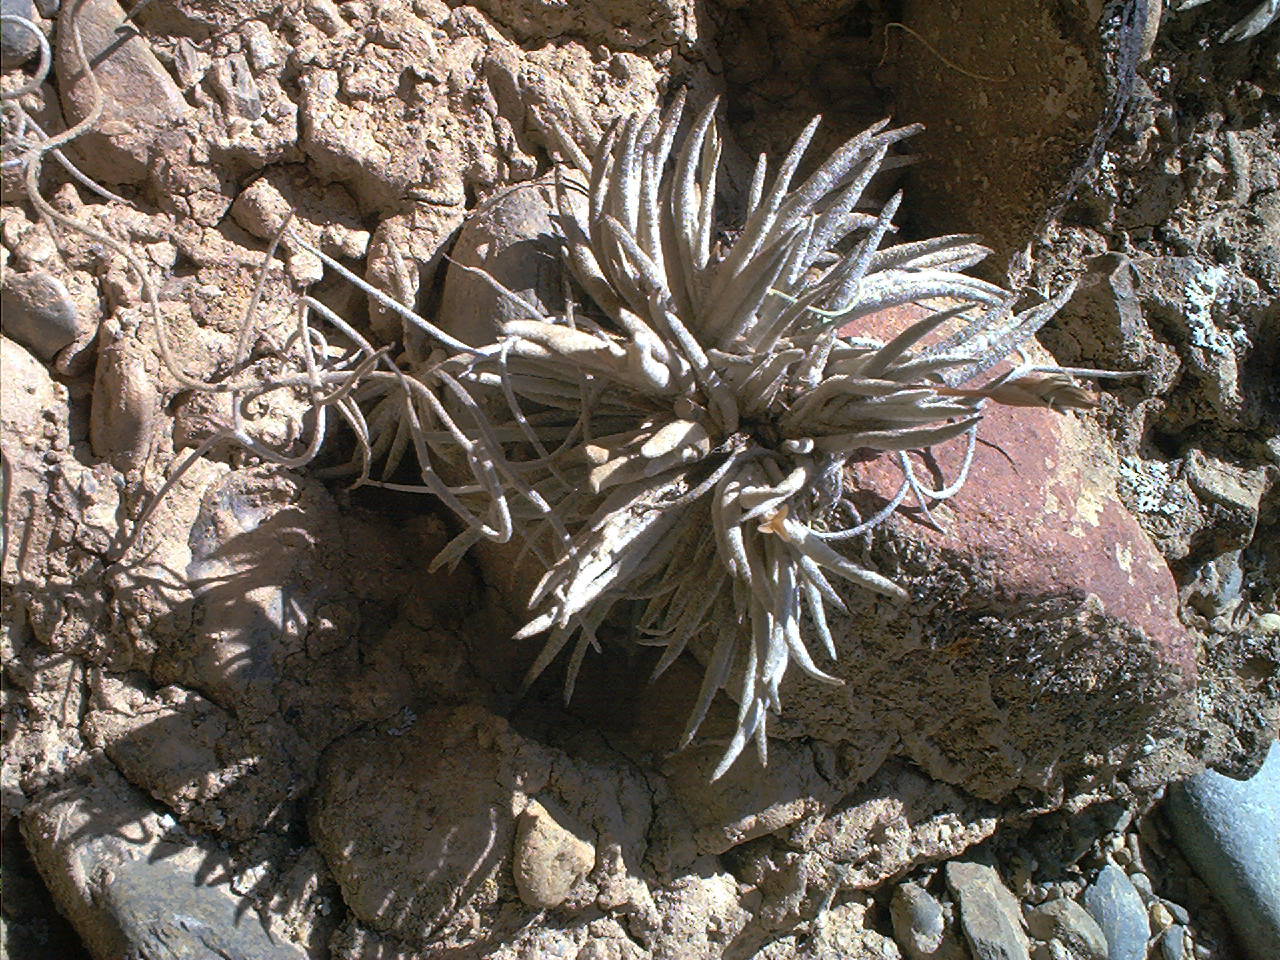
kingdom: Plantae
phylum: Tracheophyta
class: Liliopsida
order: Poales
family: Bromeliaceae
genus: Tillandsia
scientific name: Tillandsia virescens
